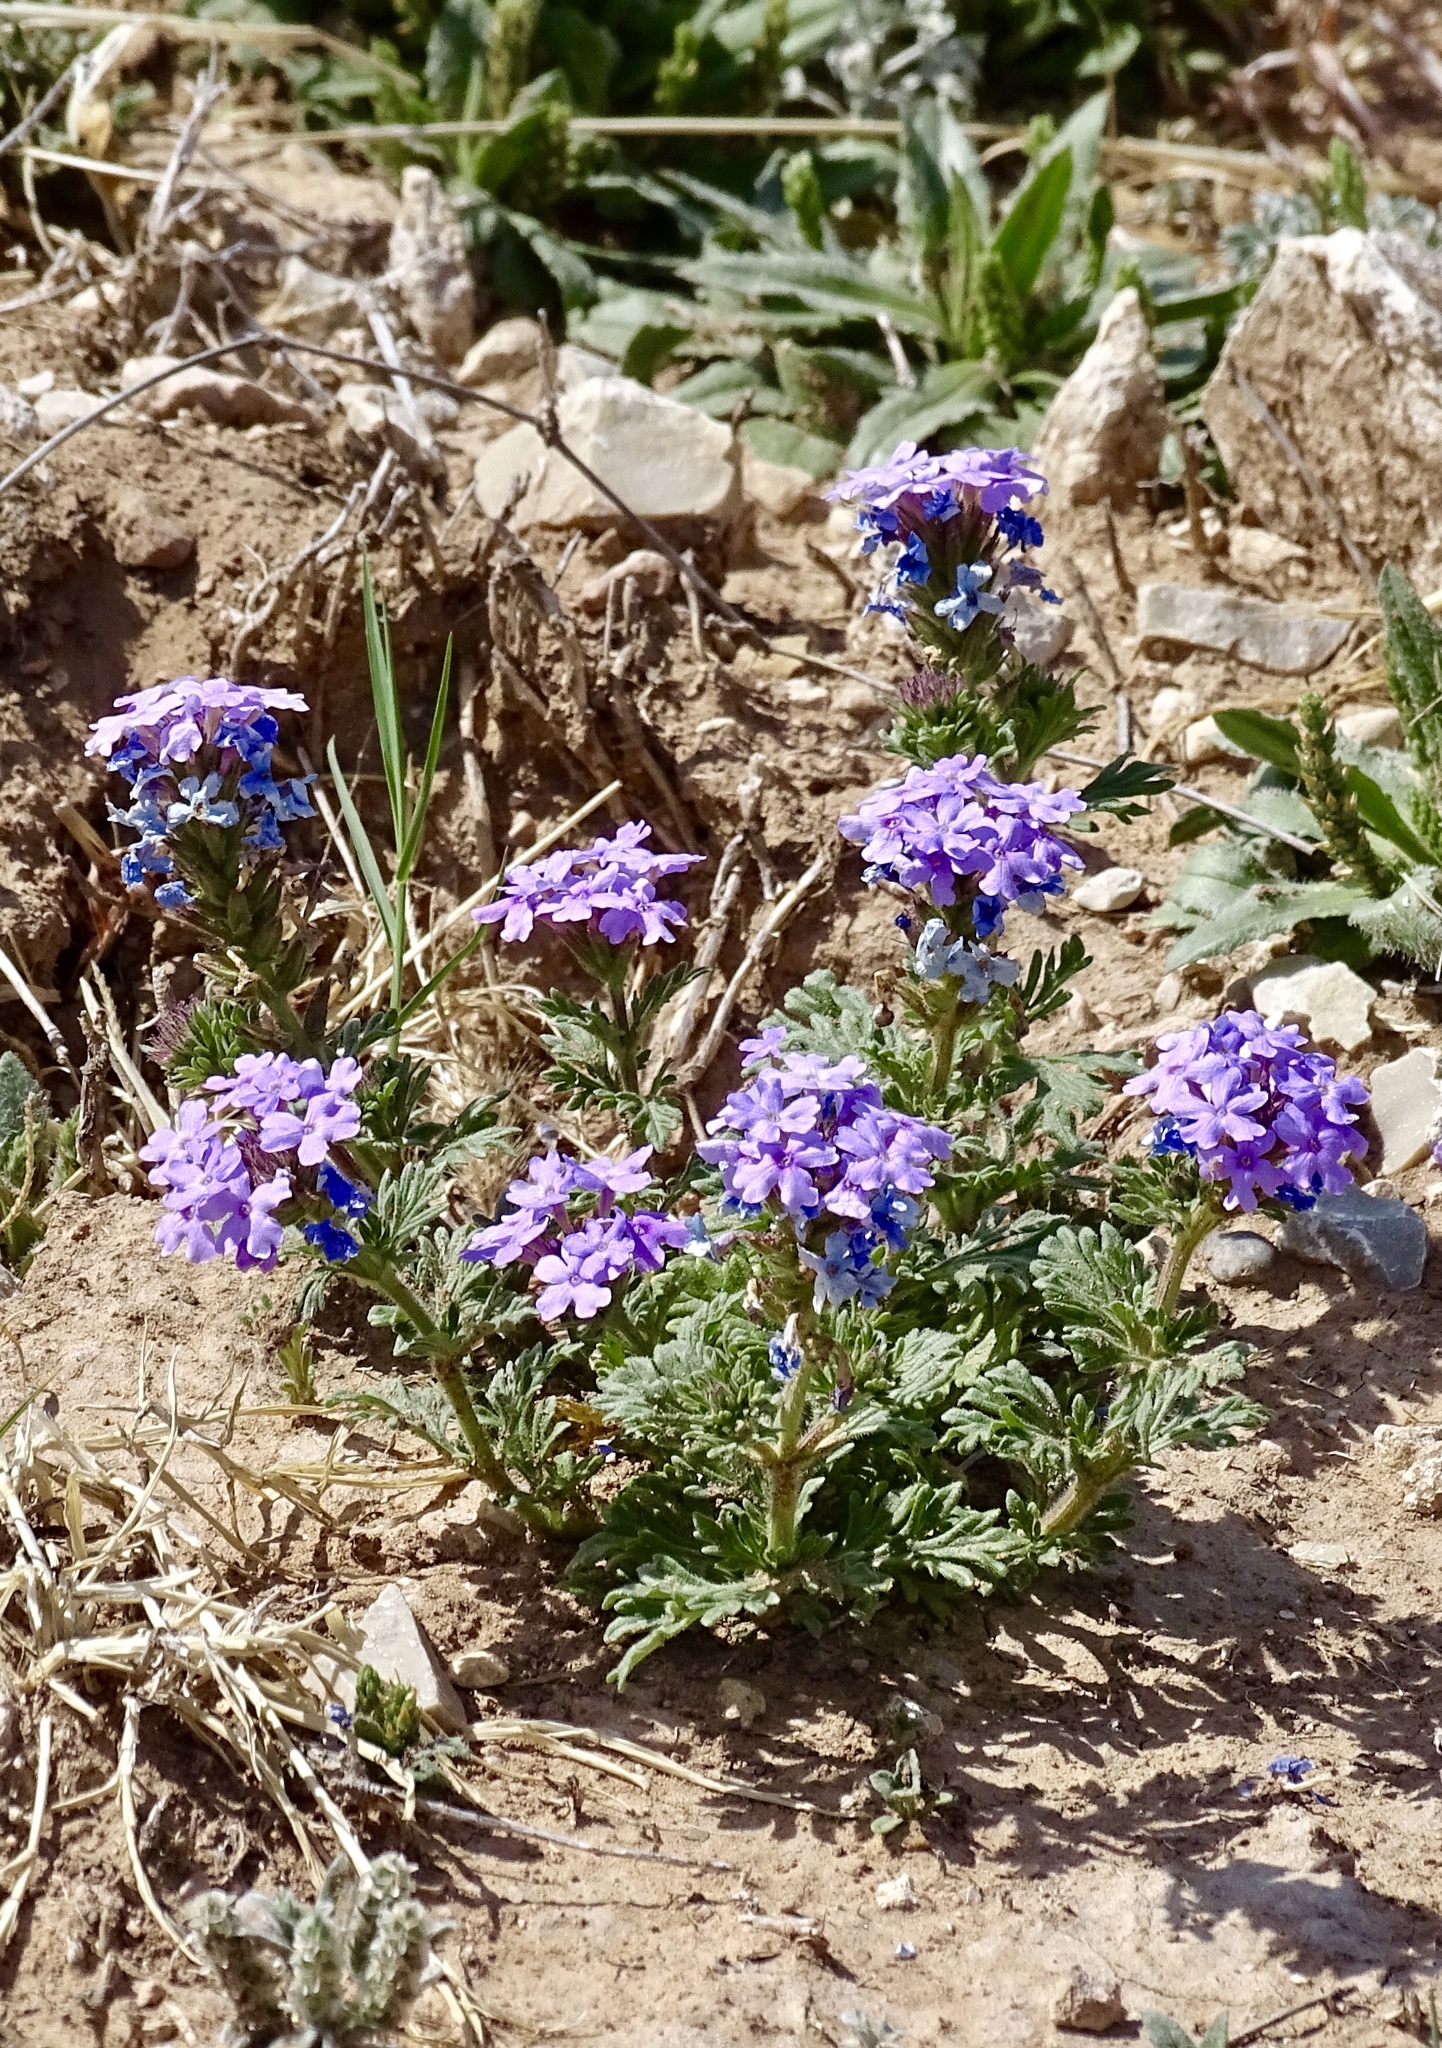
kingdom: Plantae
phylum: Tracheophyta
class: Magnoliopsida
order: Lamiales
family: Verbenaceae
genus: Verbena
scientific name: Verbena bipinnatifida
